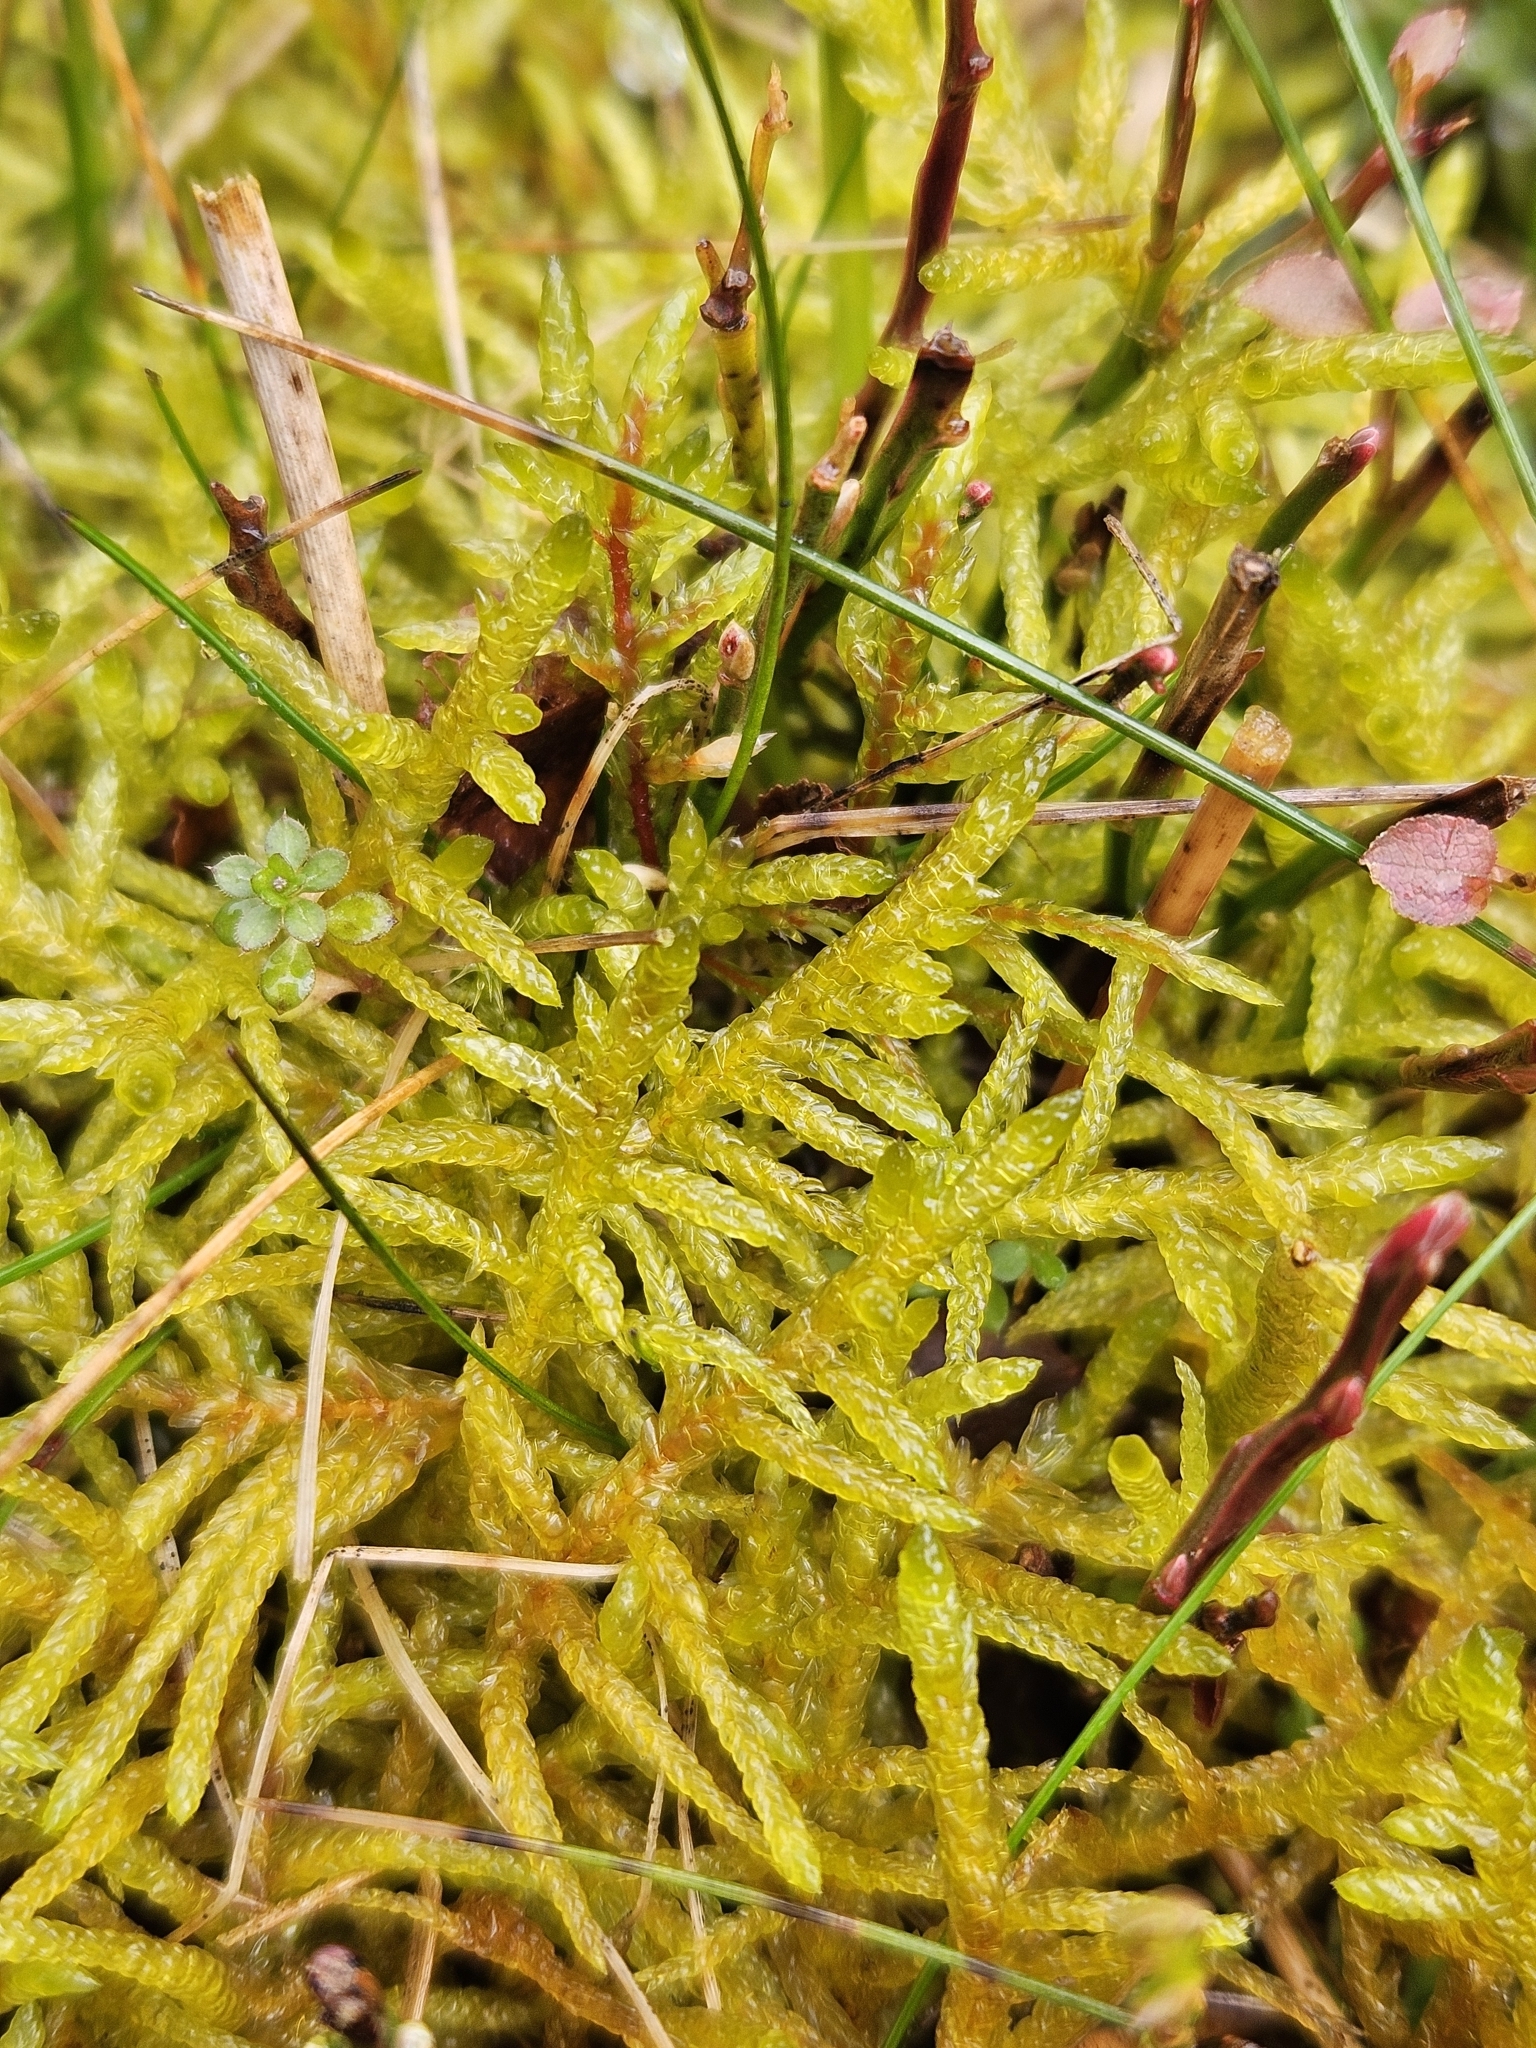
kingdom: Plantae
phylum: Bryophyta
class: Bryopsida
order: Hypnales
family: Brachytheciaceae
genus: Pseudoscleropodium
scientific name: Pseudoscleropodium purum
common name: Neat feather-moss
